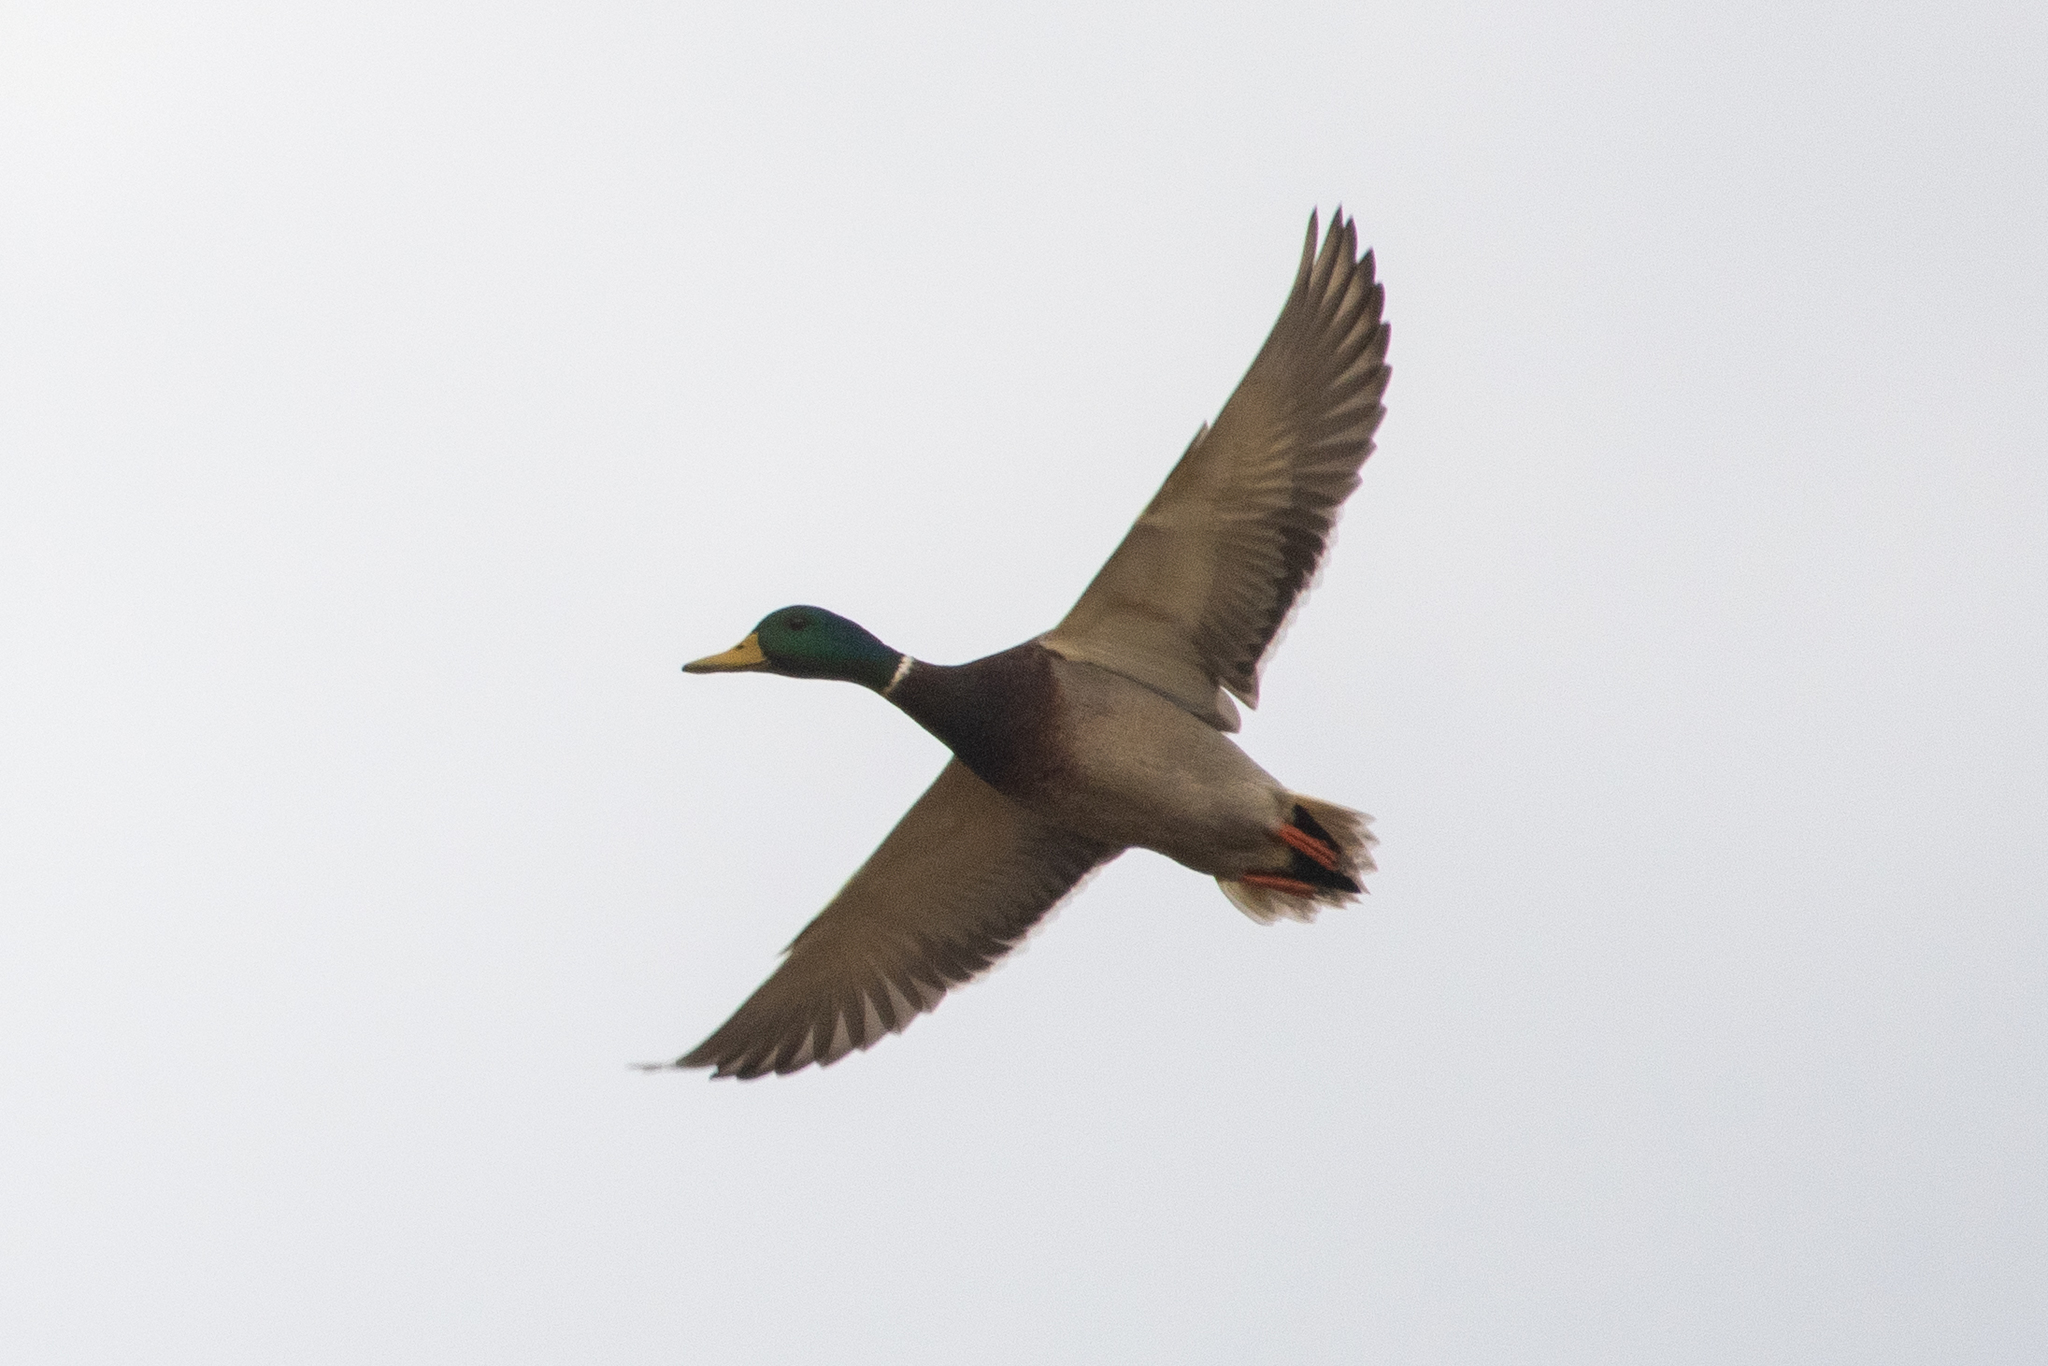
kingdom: Animalia
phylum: Chordata
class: Aves
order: Anseriformes
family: Anatidae
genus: Anas
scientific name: Anas platyrhynchos
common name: Mallard
